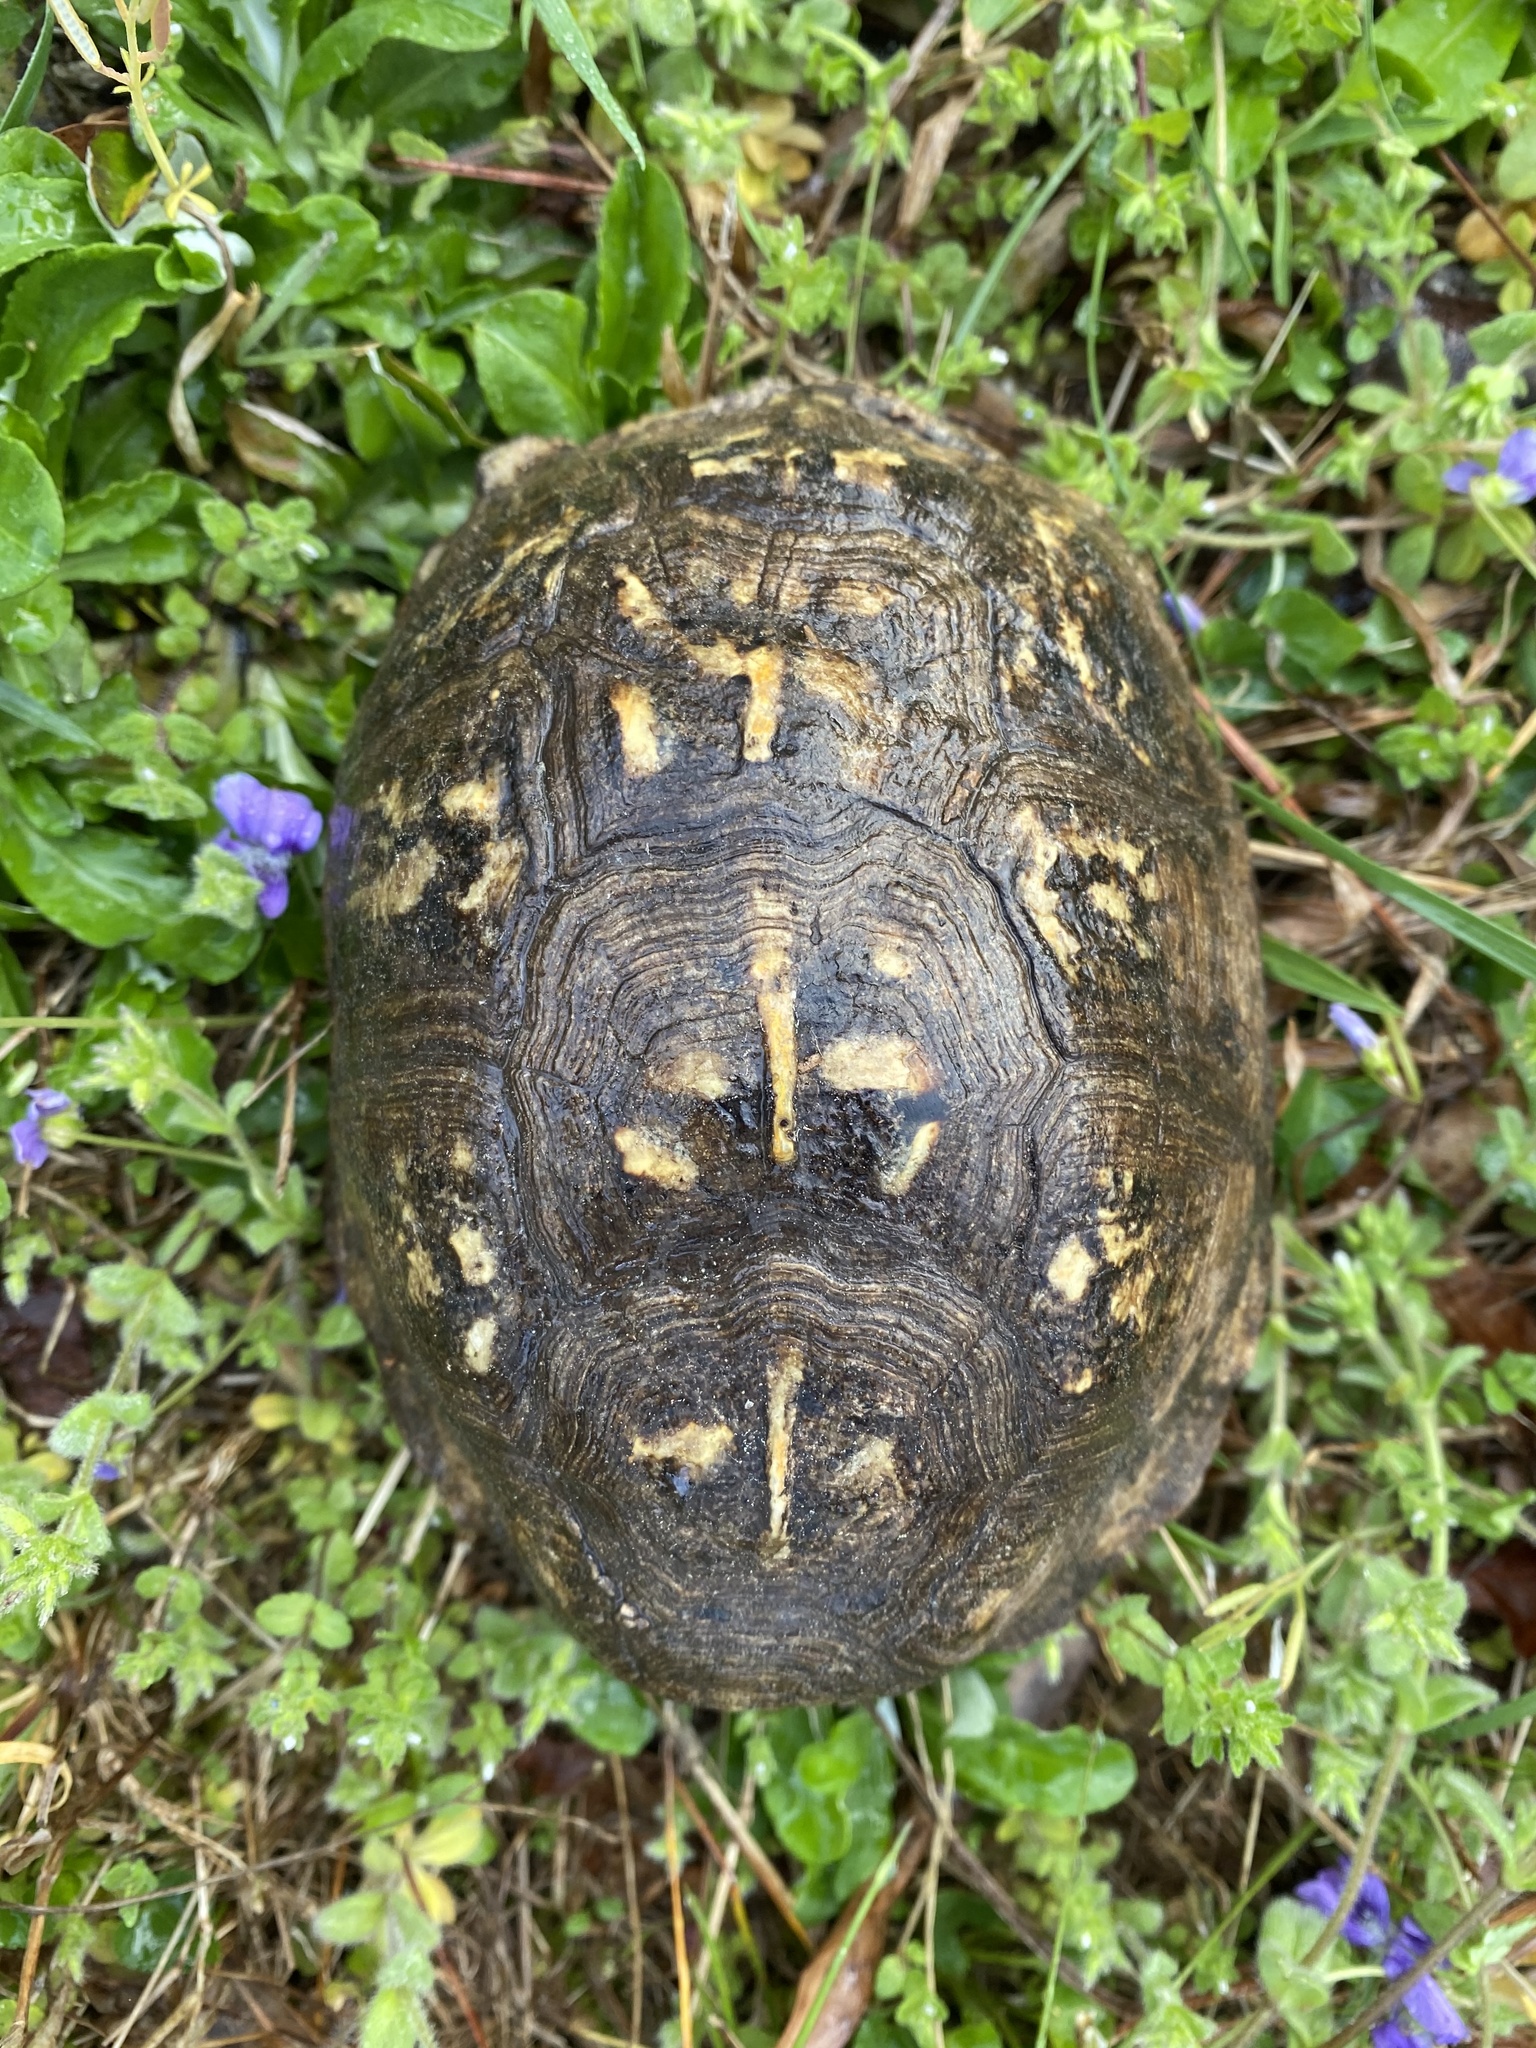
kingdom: Animalia
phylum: Chordata
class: Testudines
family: Emydidae
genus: Terrapene
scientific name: Terrapene carolina
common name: Common box turtle
